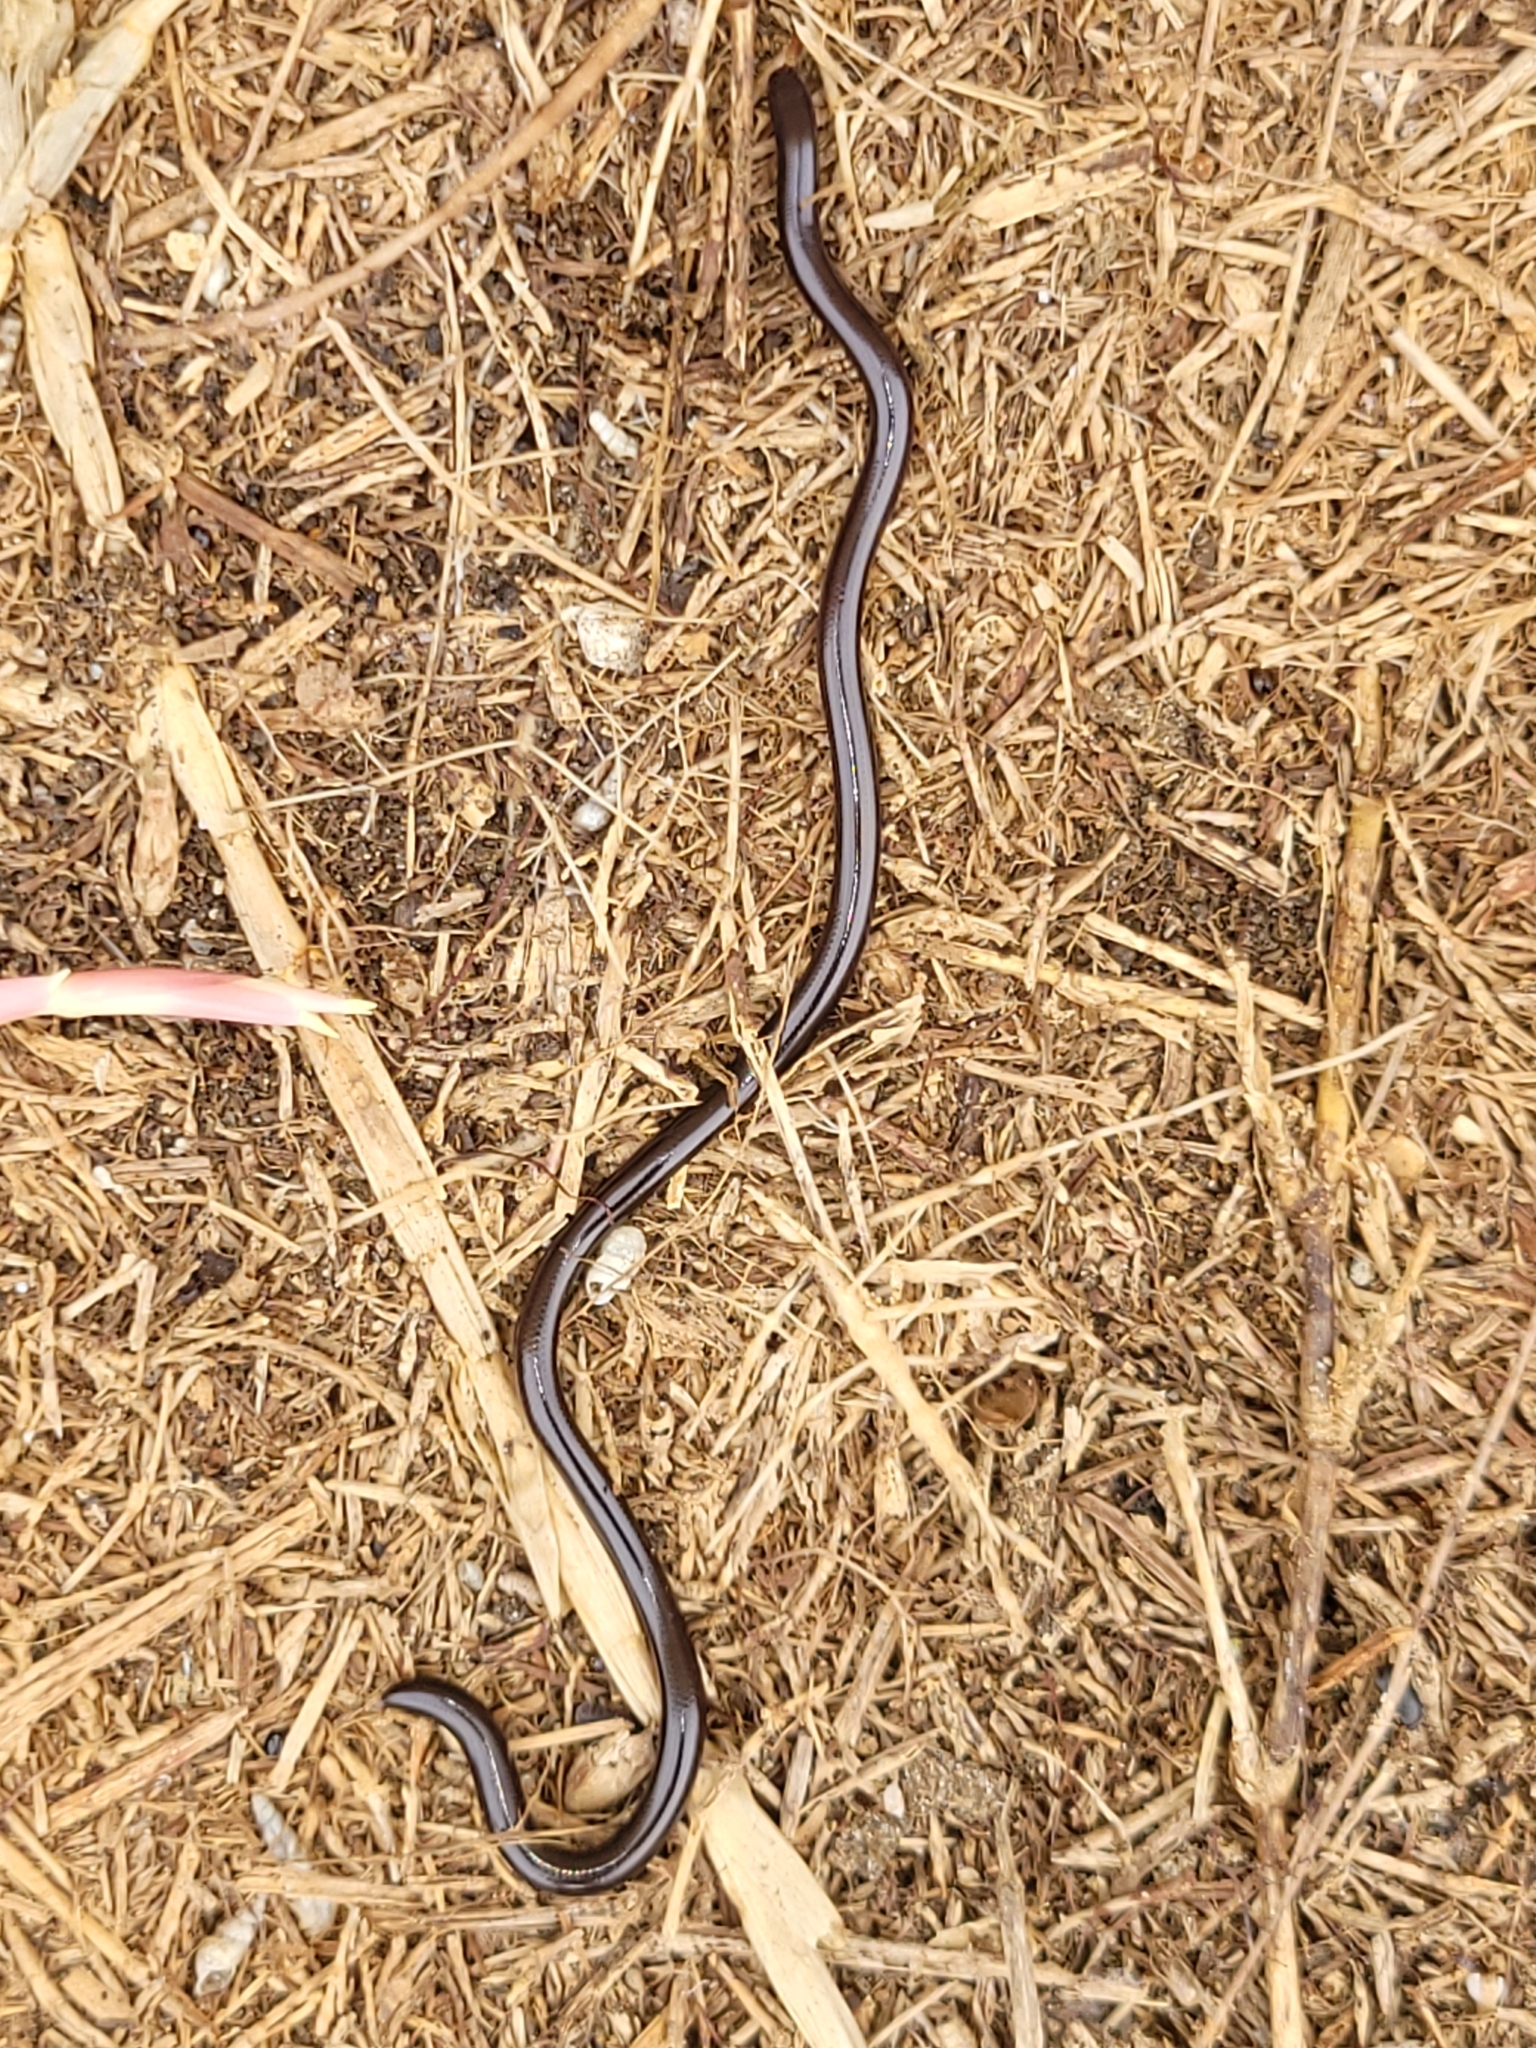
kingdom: Animalia
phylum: Chordata
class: Squamata
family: Typhlopidae
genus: Indotyphlops
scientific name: Indotyphlops braminus
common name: Brahminy blindsnake
